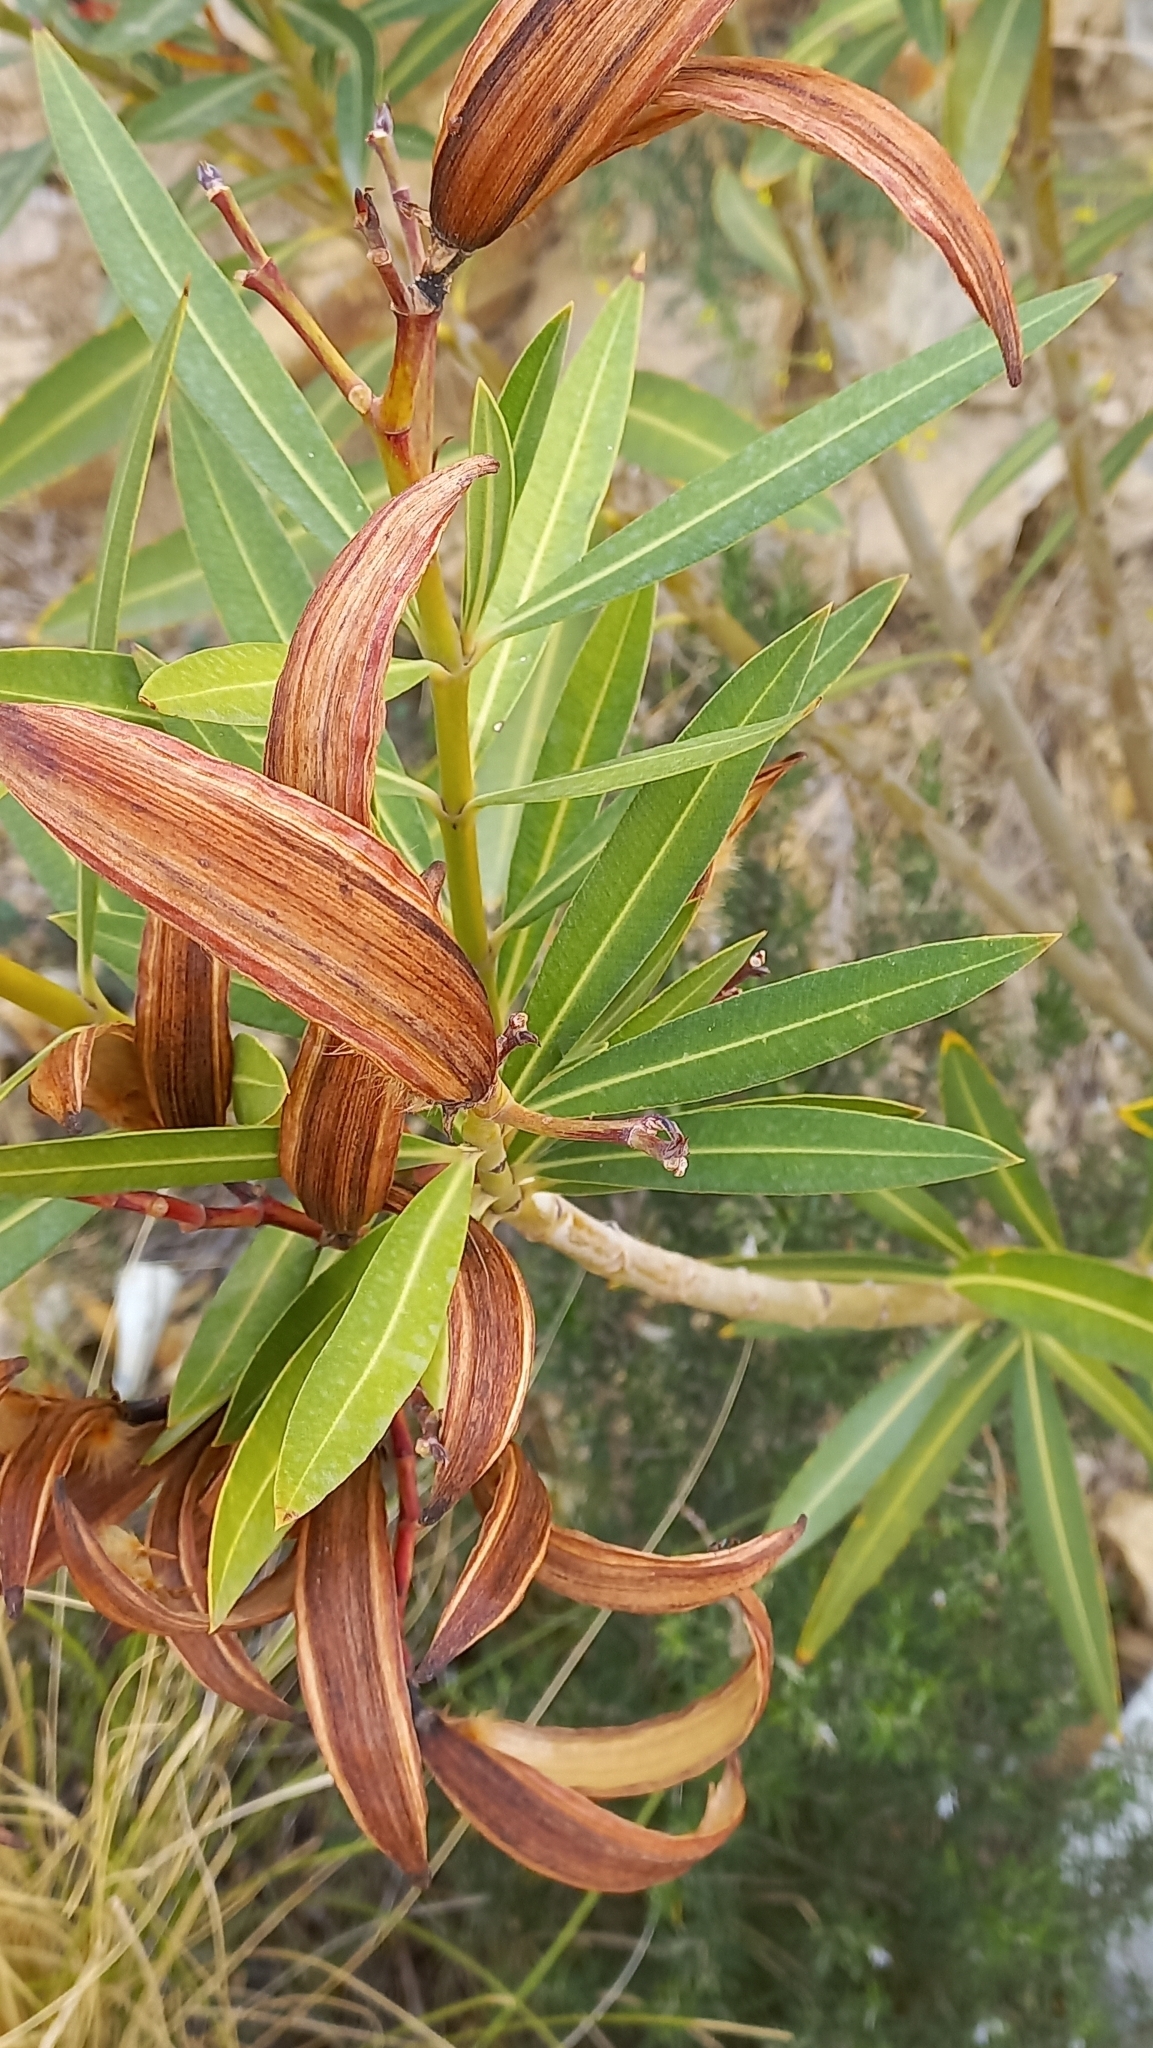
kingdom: Plantae
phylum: Tracheophyta
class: Magnoliopsida
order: Gentianales
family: Apocynaceae
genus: Nerium
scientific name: Nerium oleander
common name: Oleander
